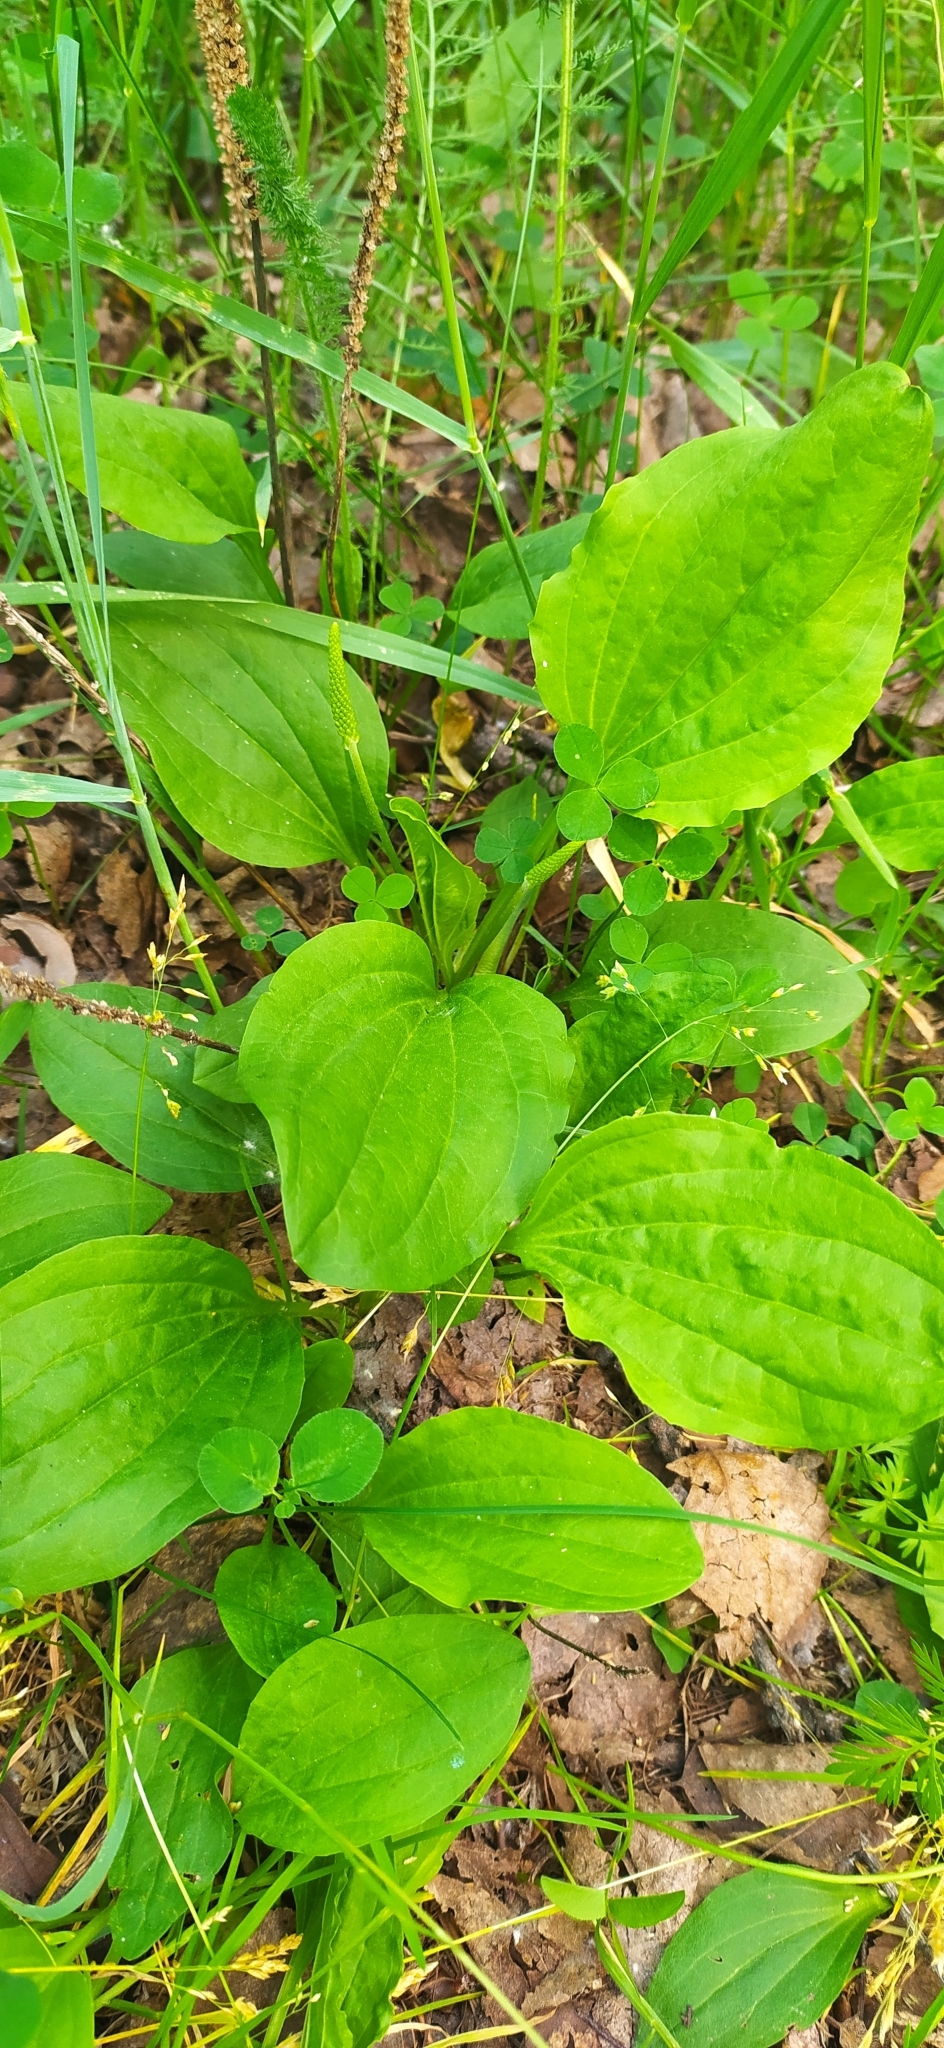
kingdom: Plantae
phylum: Tracheophyta
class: Magnoliopsida
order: Lamiales
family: Plantaginaceae
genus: Plantago
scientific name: Plantago major
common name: Common plantain
